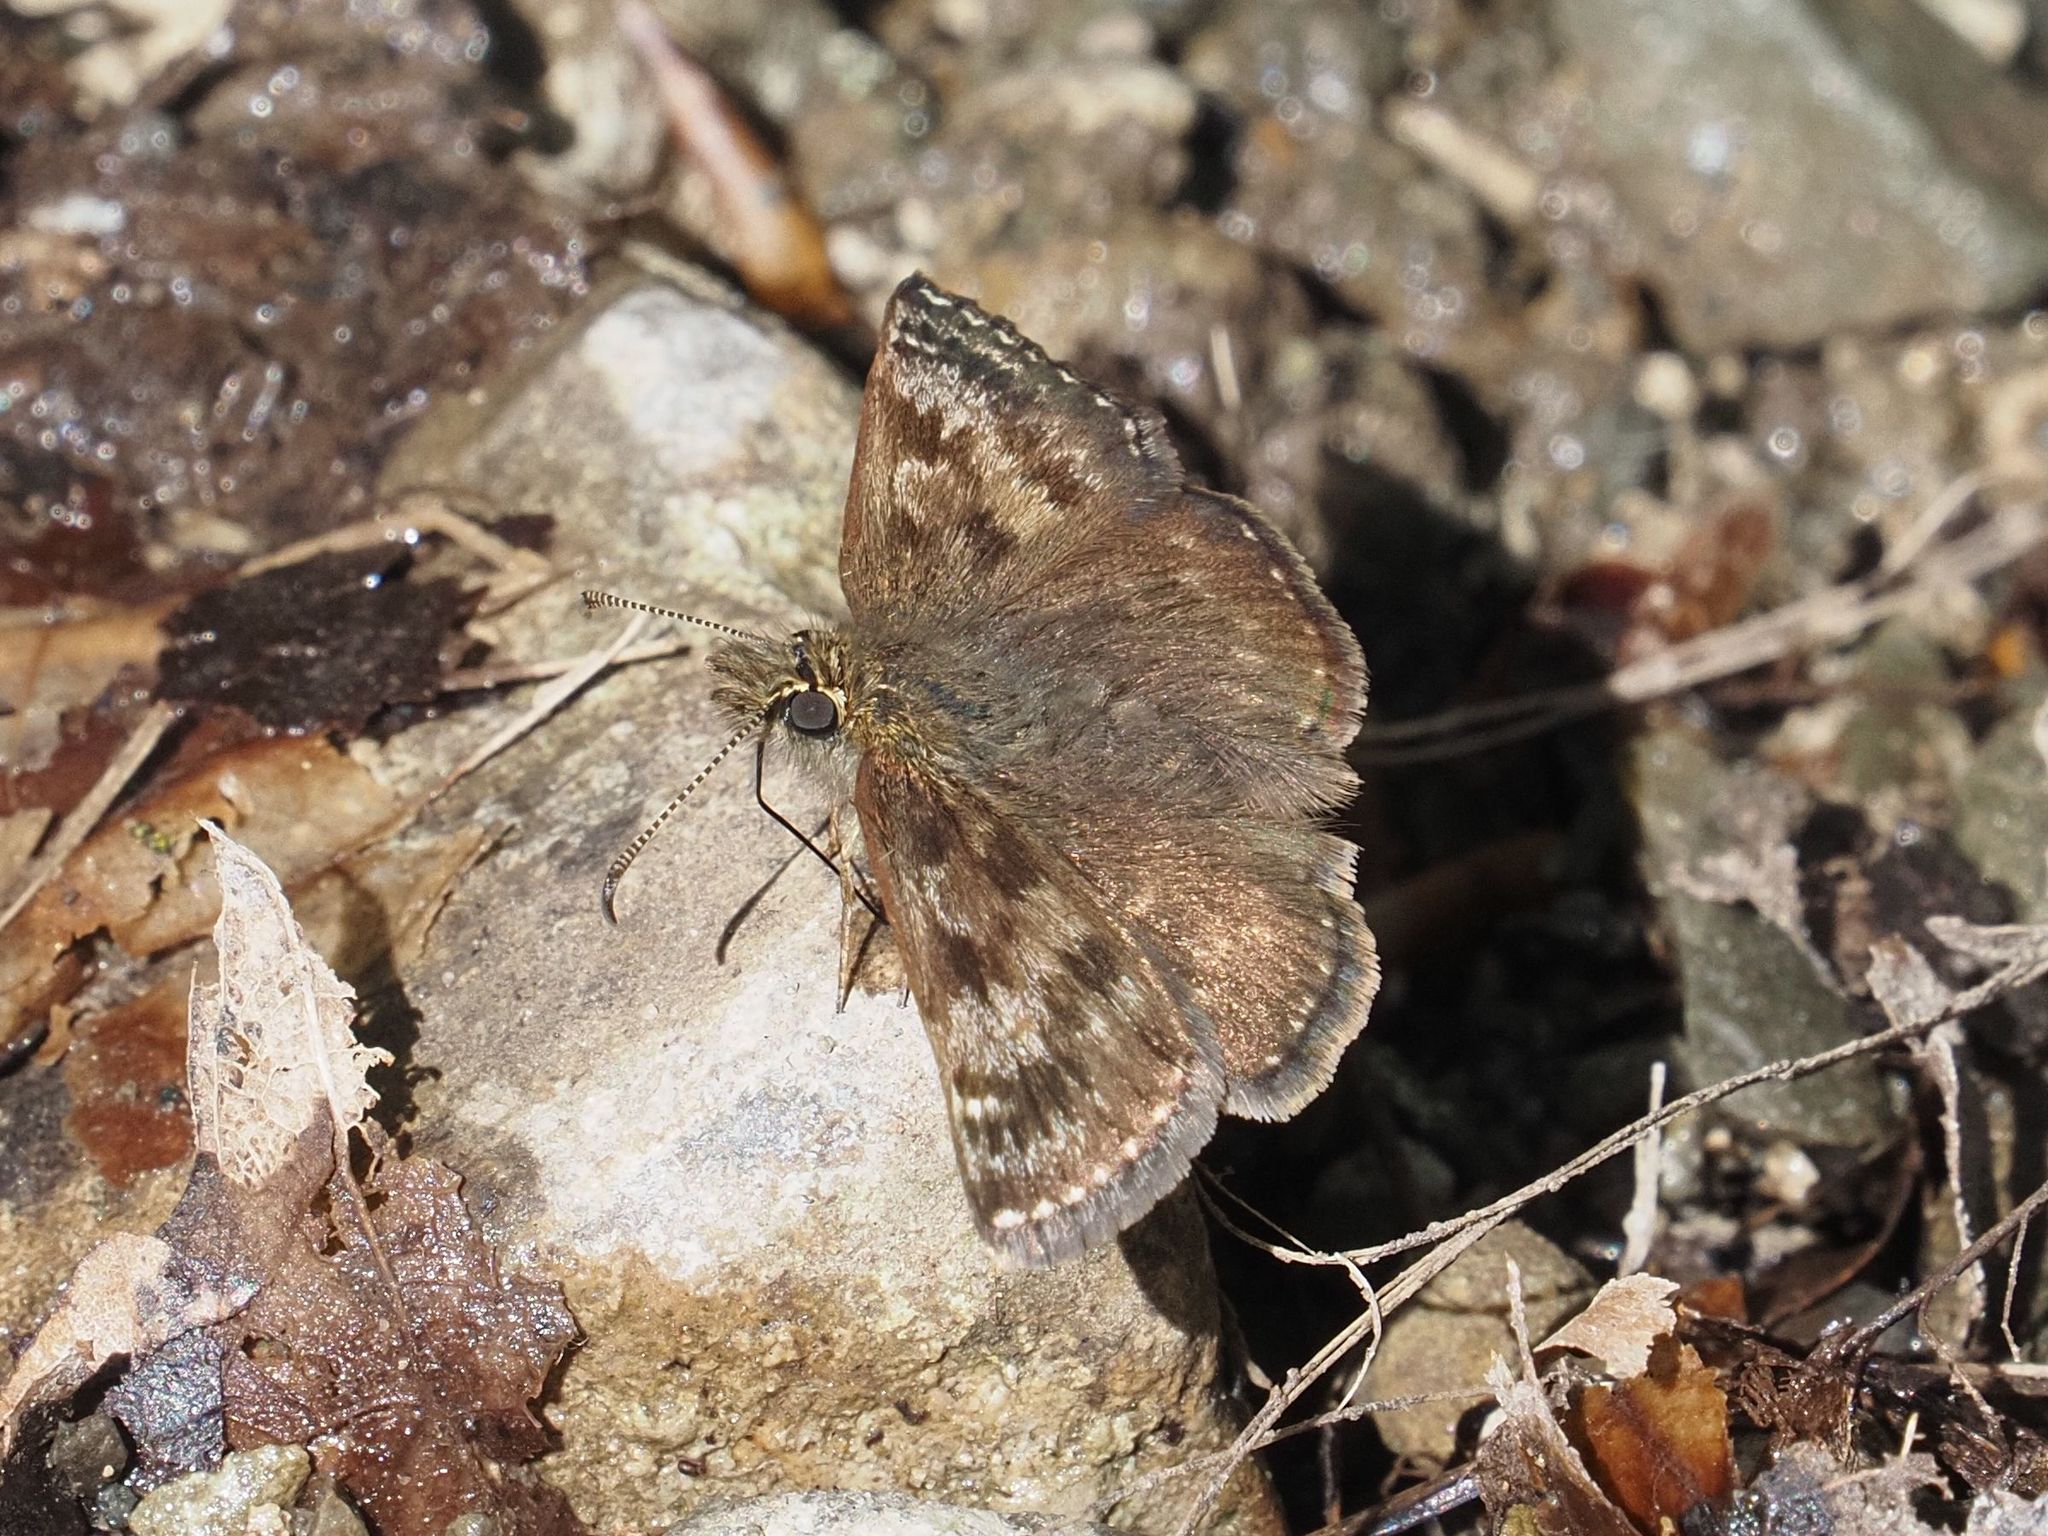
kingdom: Animalia
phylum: Arthropoda
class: Insecta
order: Lepidoptera
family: Hesperiidae
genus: Erynnis
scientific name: Erynnis tages
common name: Dingy skipper
